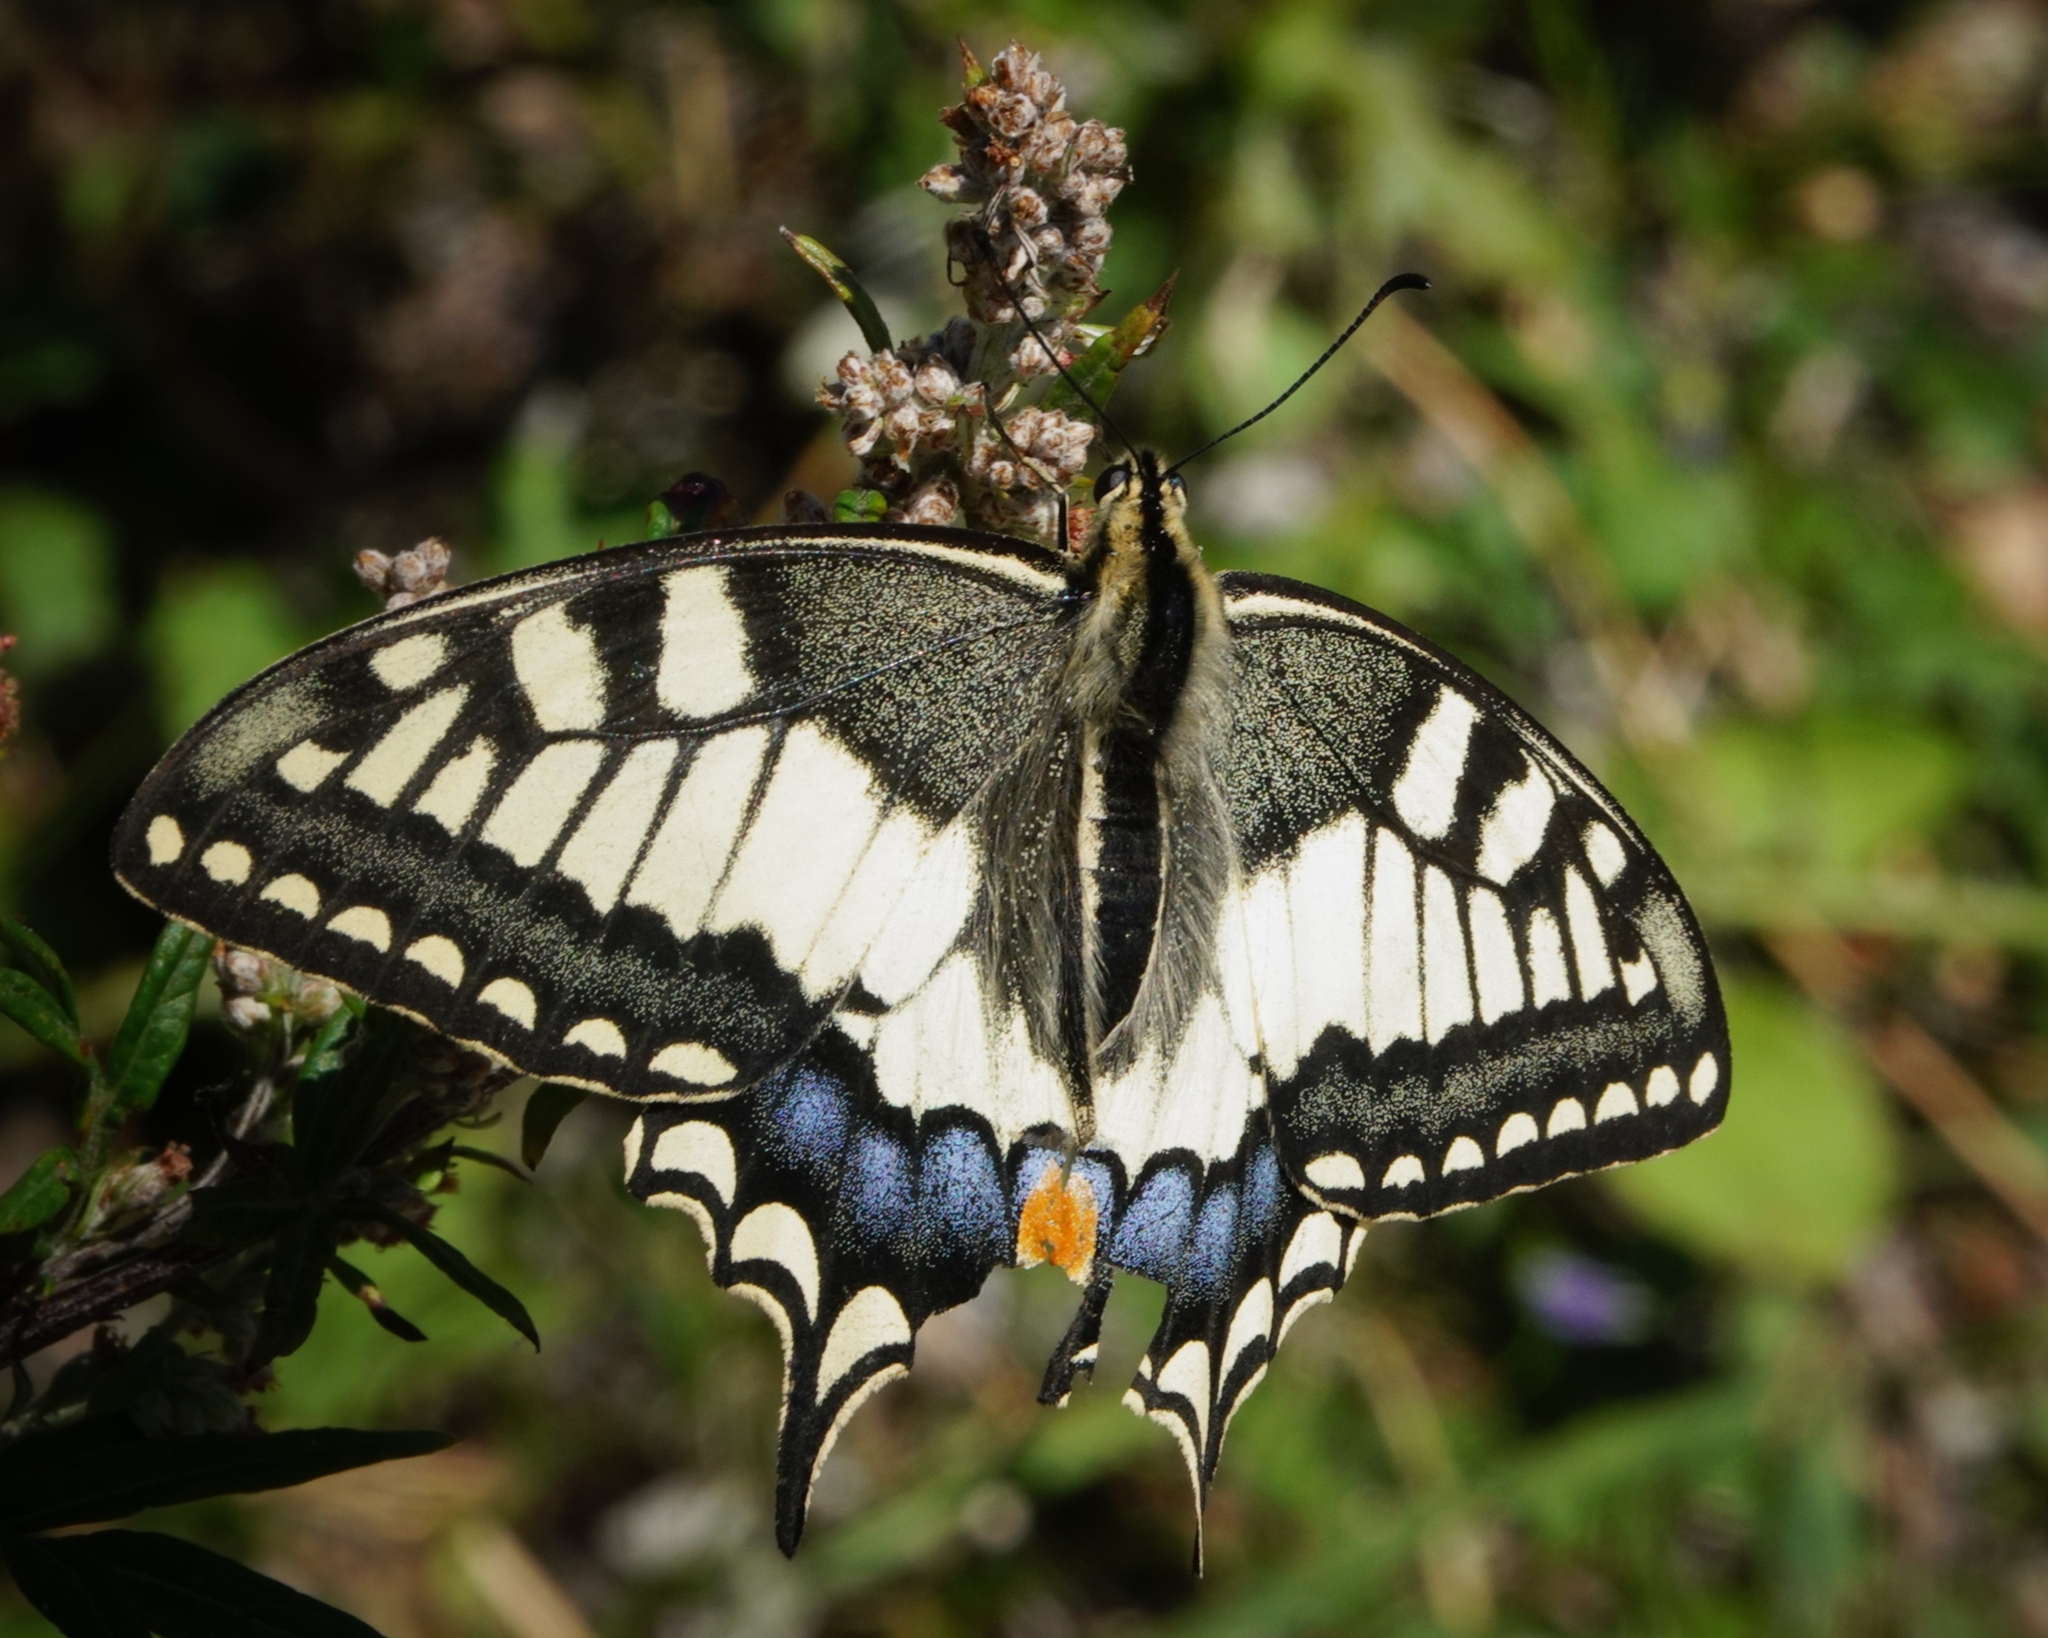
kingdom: Animalia
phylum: Arthropoda
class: Insecta
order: Lepidoptera
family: Papilionidae
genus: Papilio
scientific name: Papilio machaon
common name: Swallowtail
